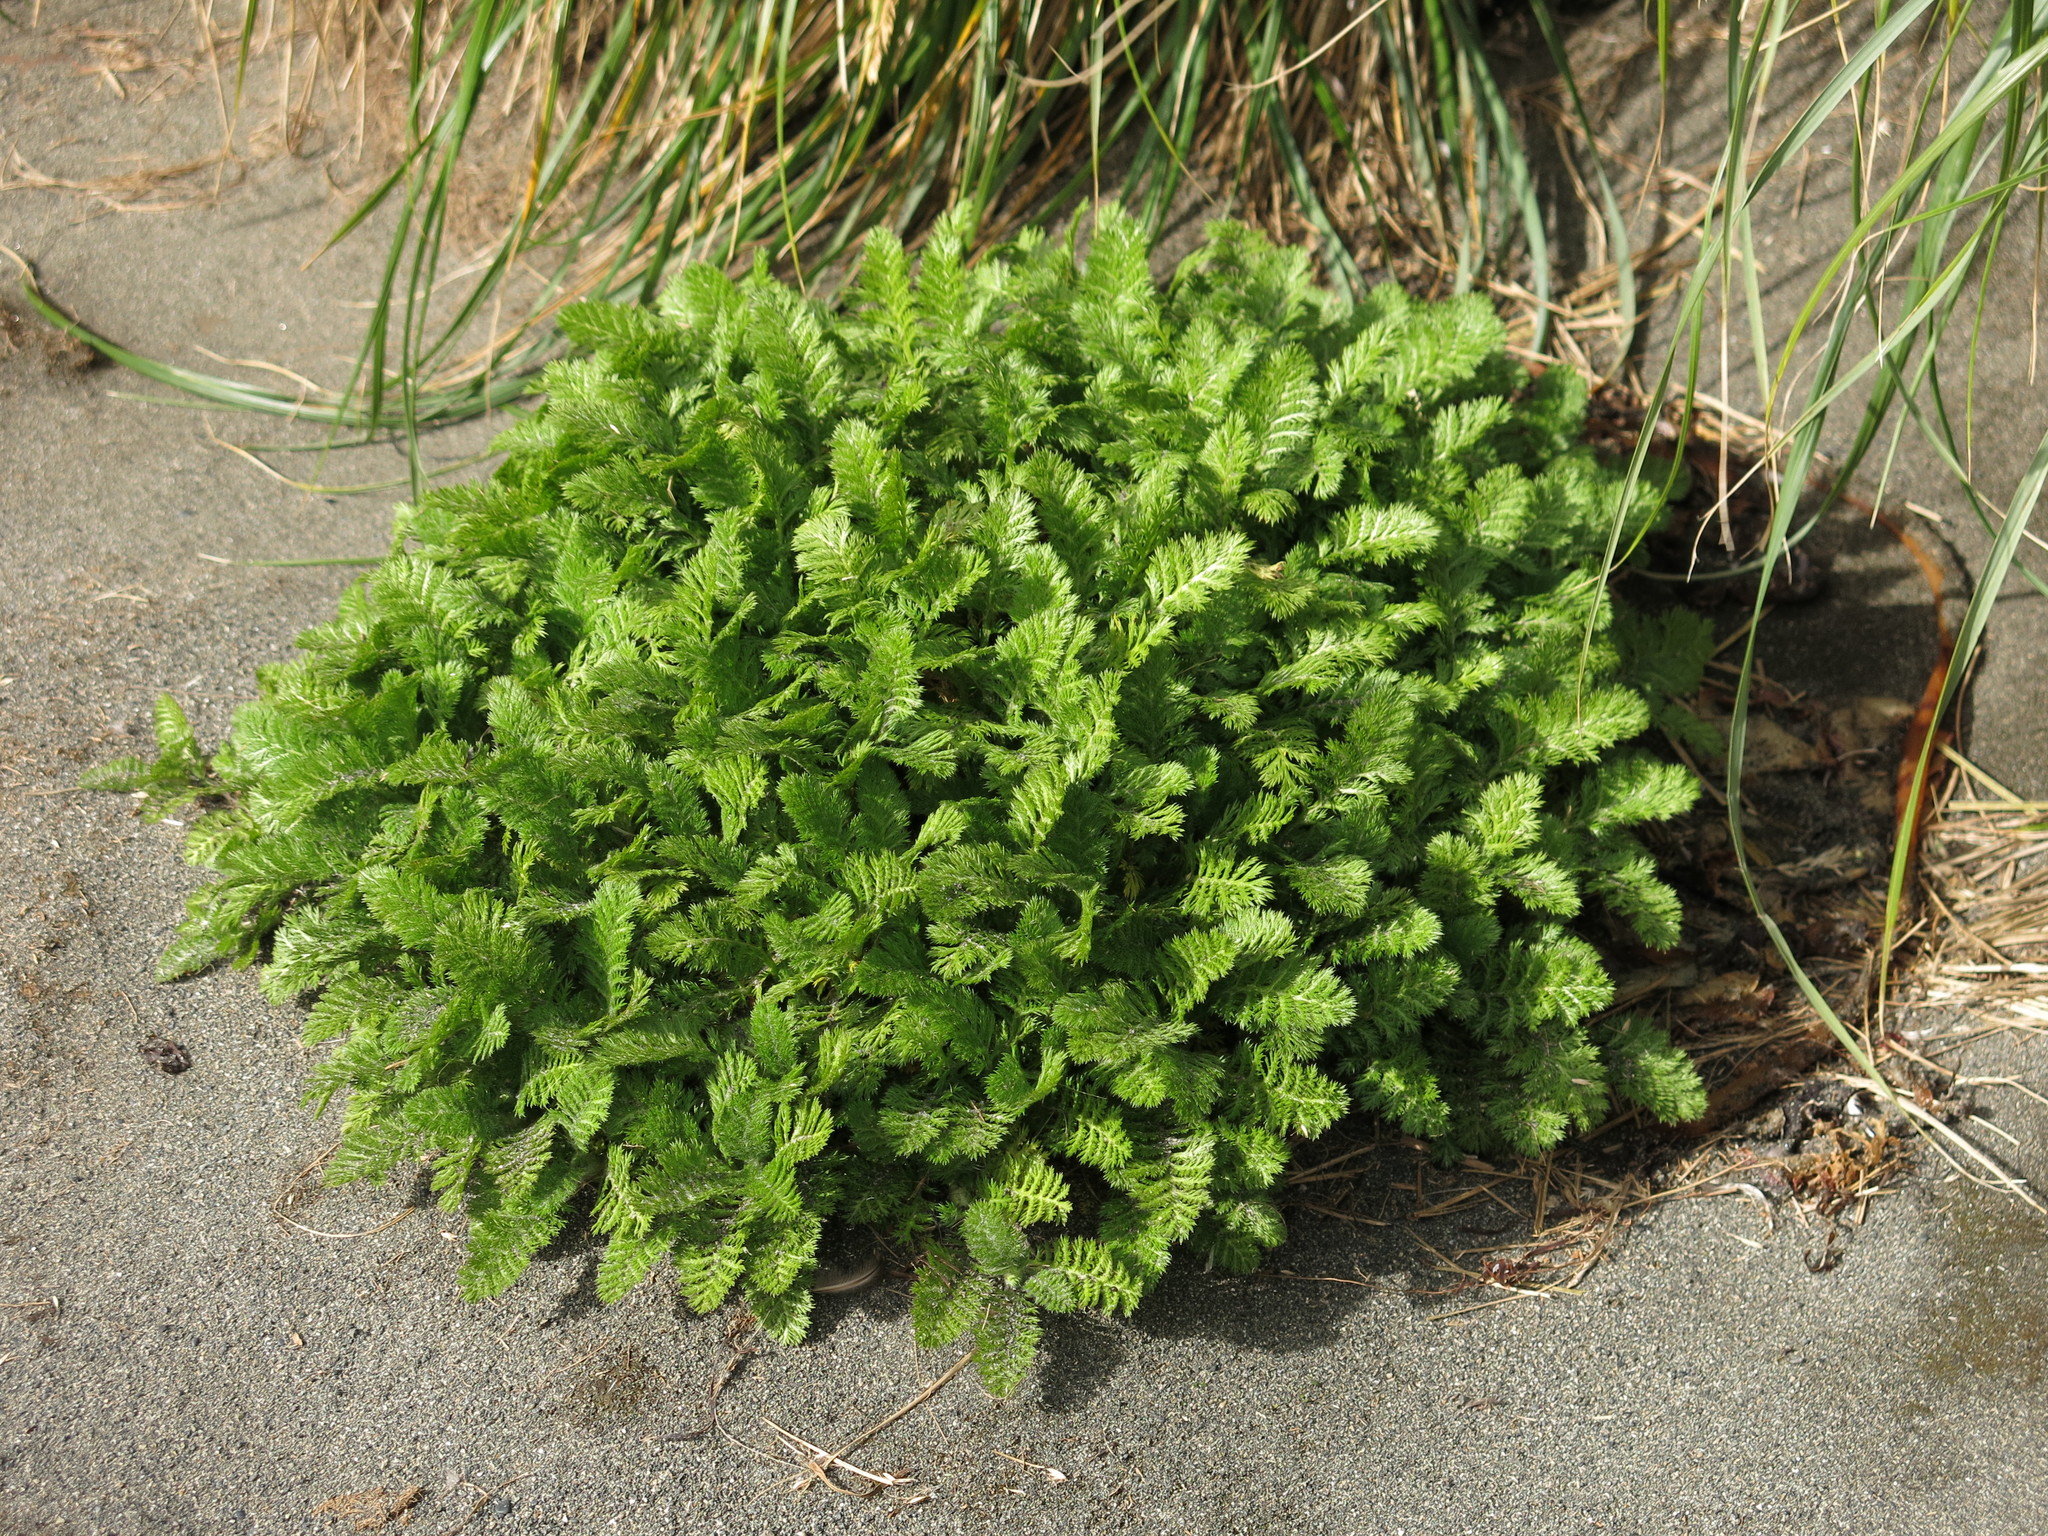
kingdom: Plantae
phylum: Tracheophyta
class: Magnoliopsida
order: Asterales
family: Asteraceae
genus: Leptinella
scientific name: Leptinella plumosa
